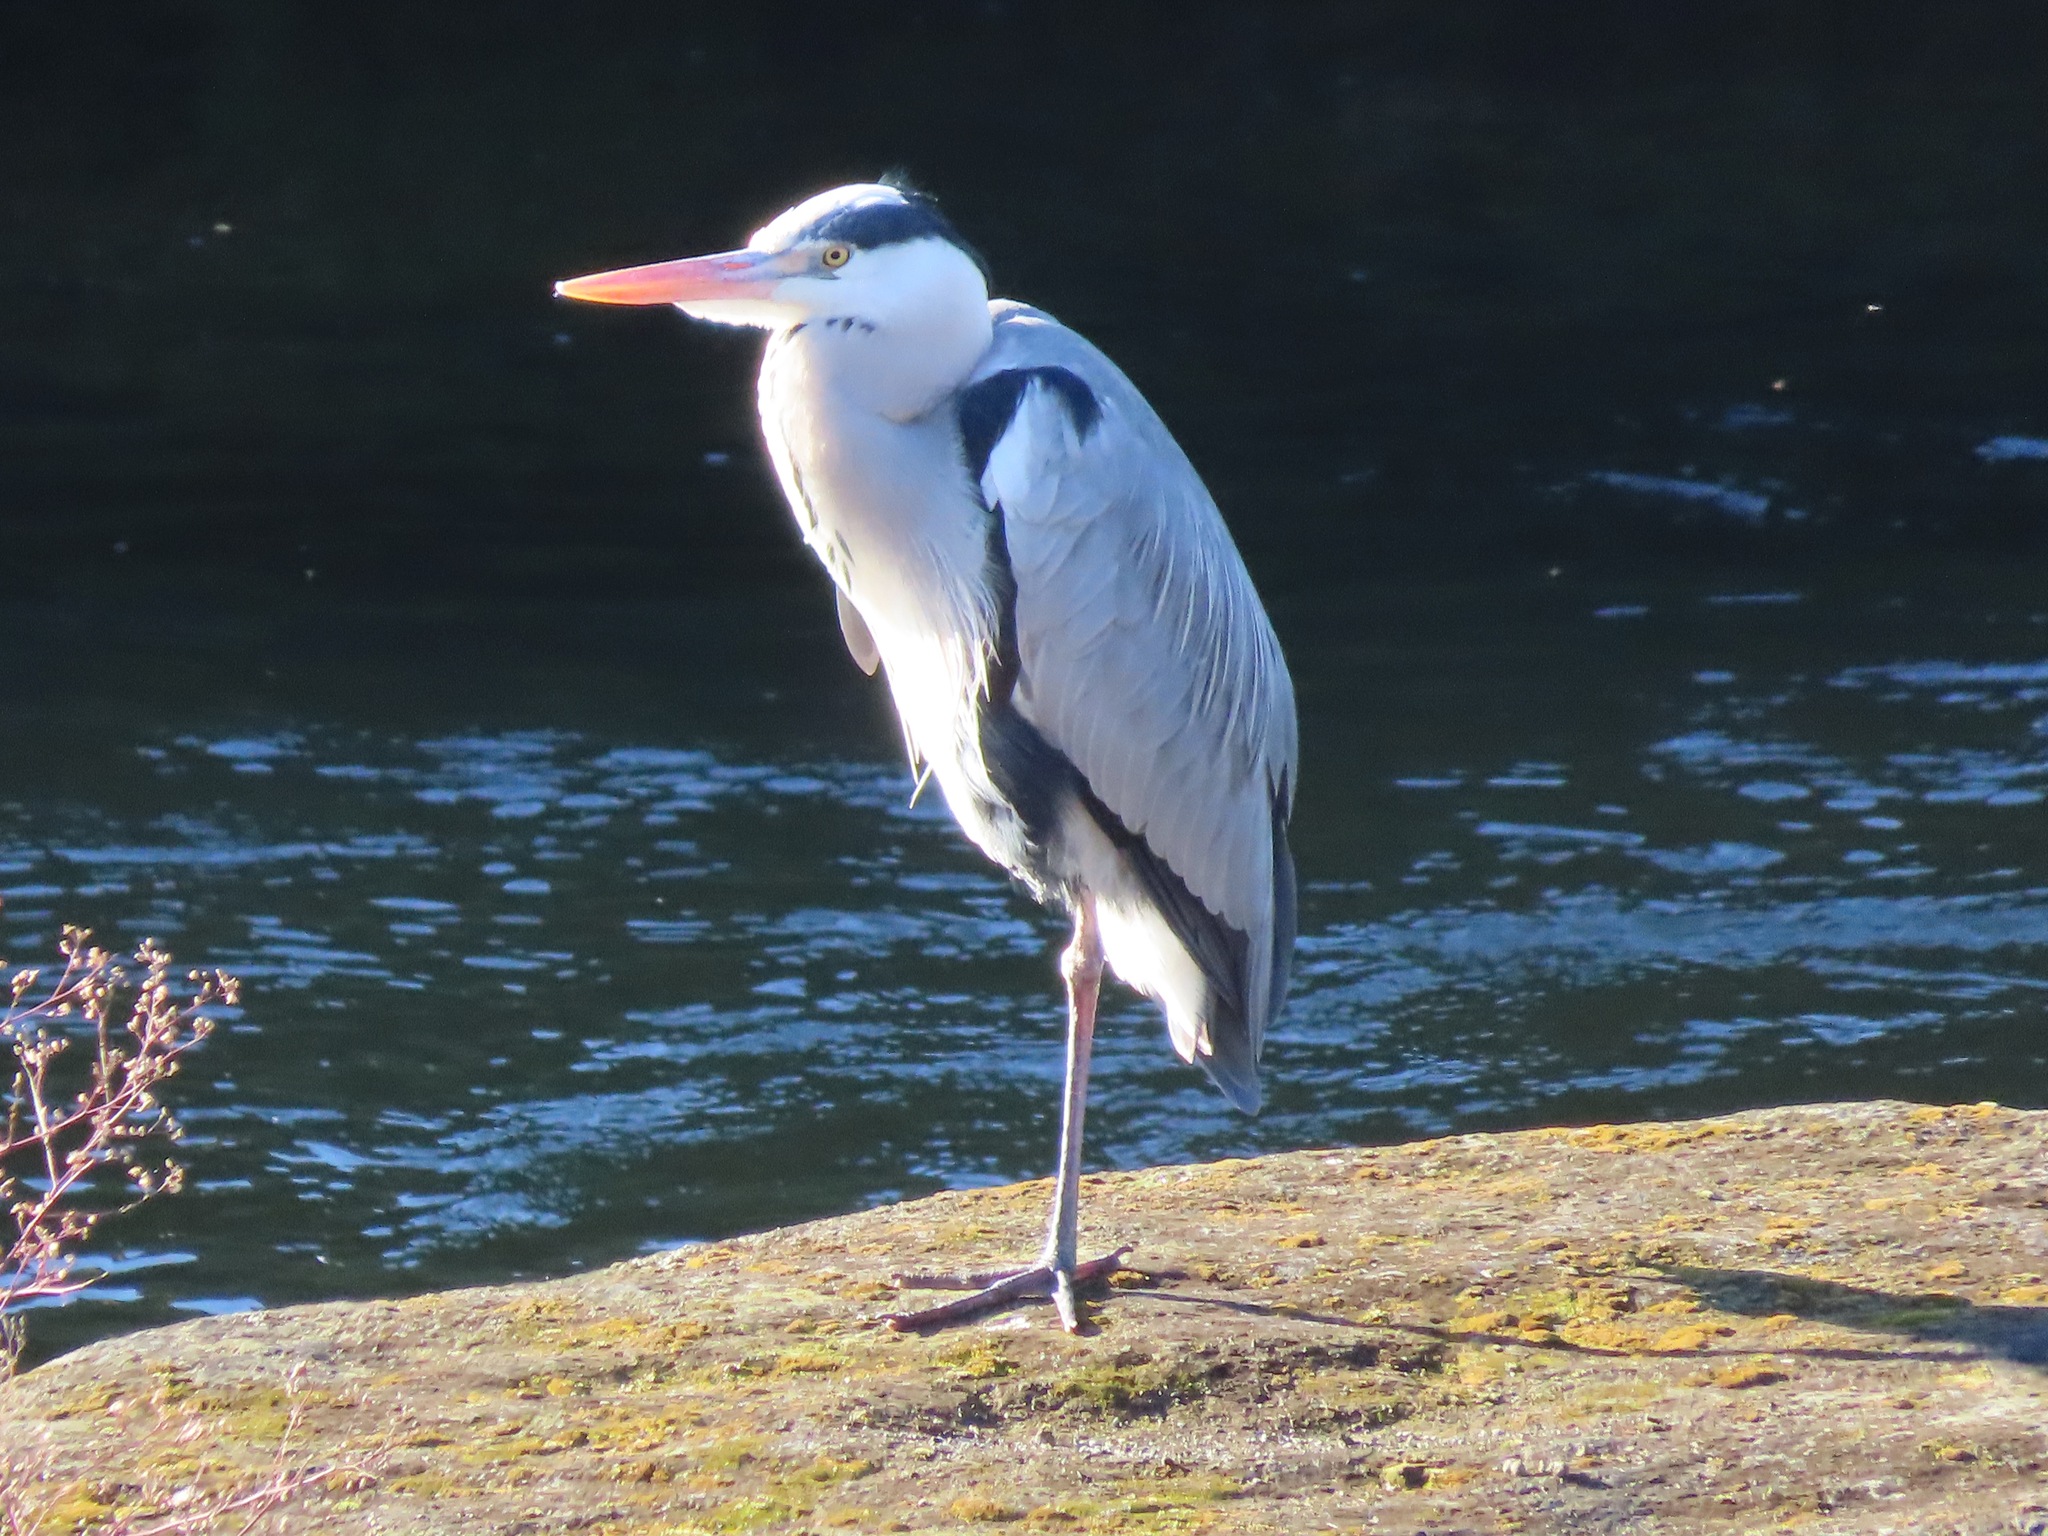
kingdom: Animalia
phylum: Chordata
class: Aves
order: Pelecaniformes
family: Ardeidae
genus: Ardea
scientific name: Ardea cinerea
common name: Grey heron
